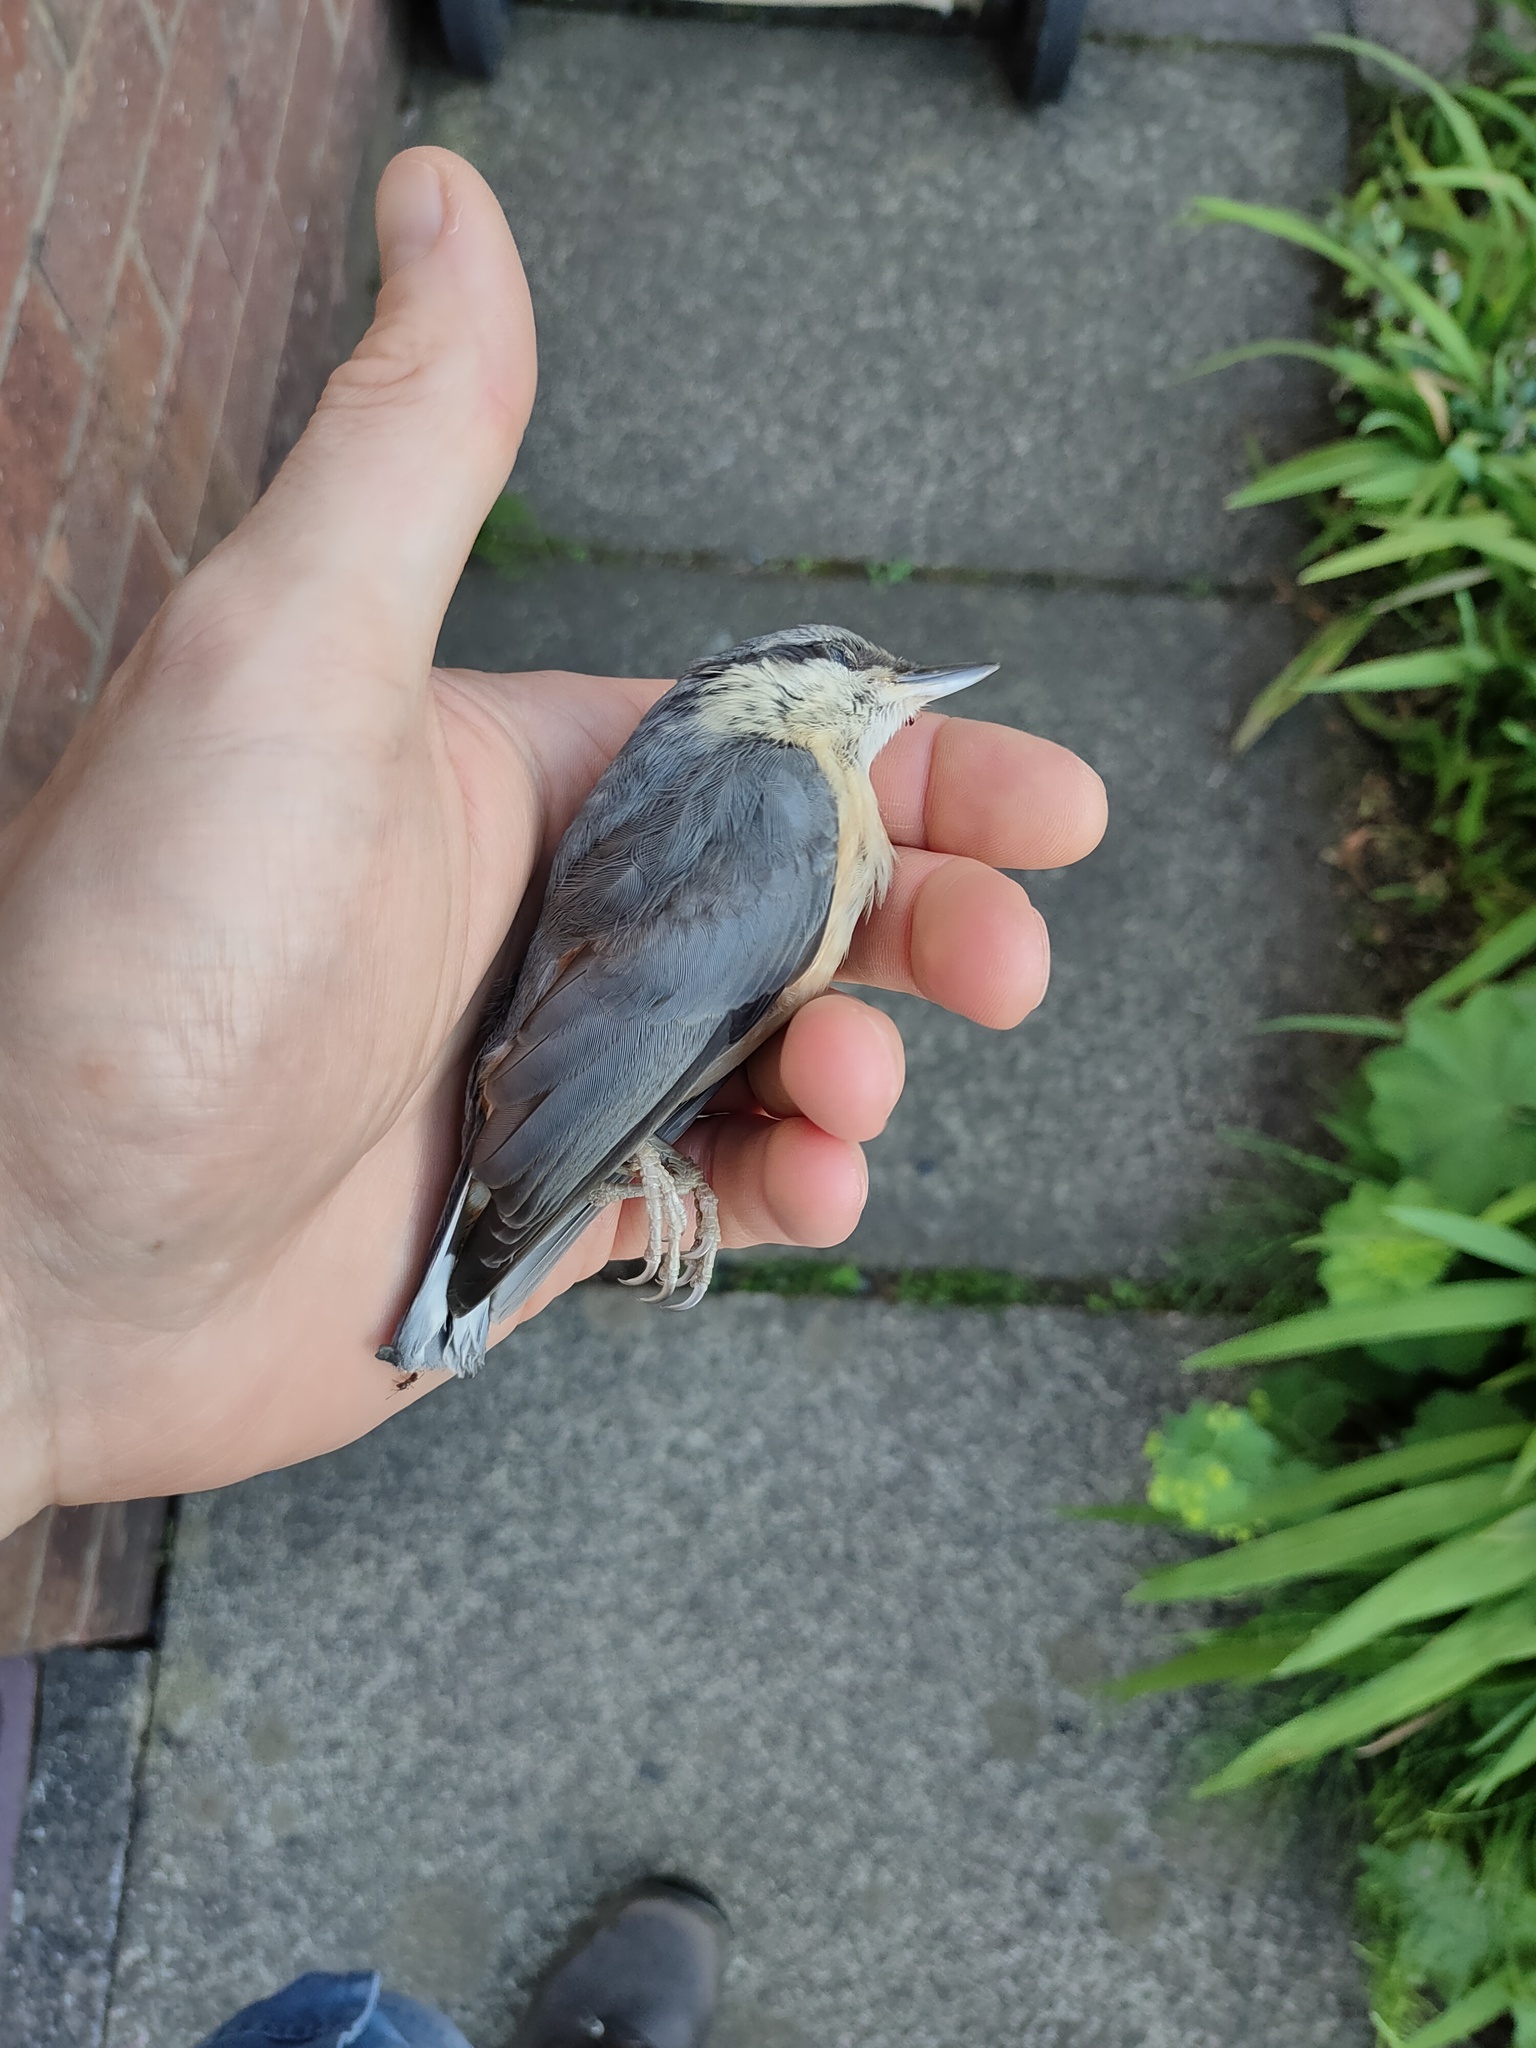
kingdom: Animalia
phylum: Chordata
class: Aves
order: Passeriformes
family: Sittidae
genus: Sitta
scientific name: Sitta europaea
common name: Eurasian nuthatch
